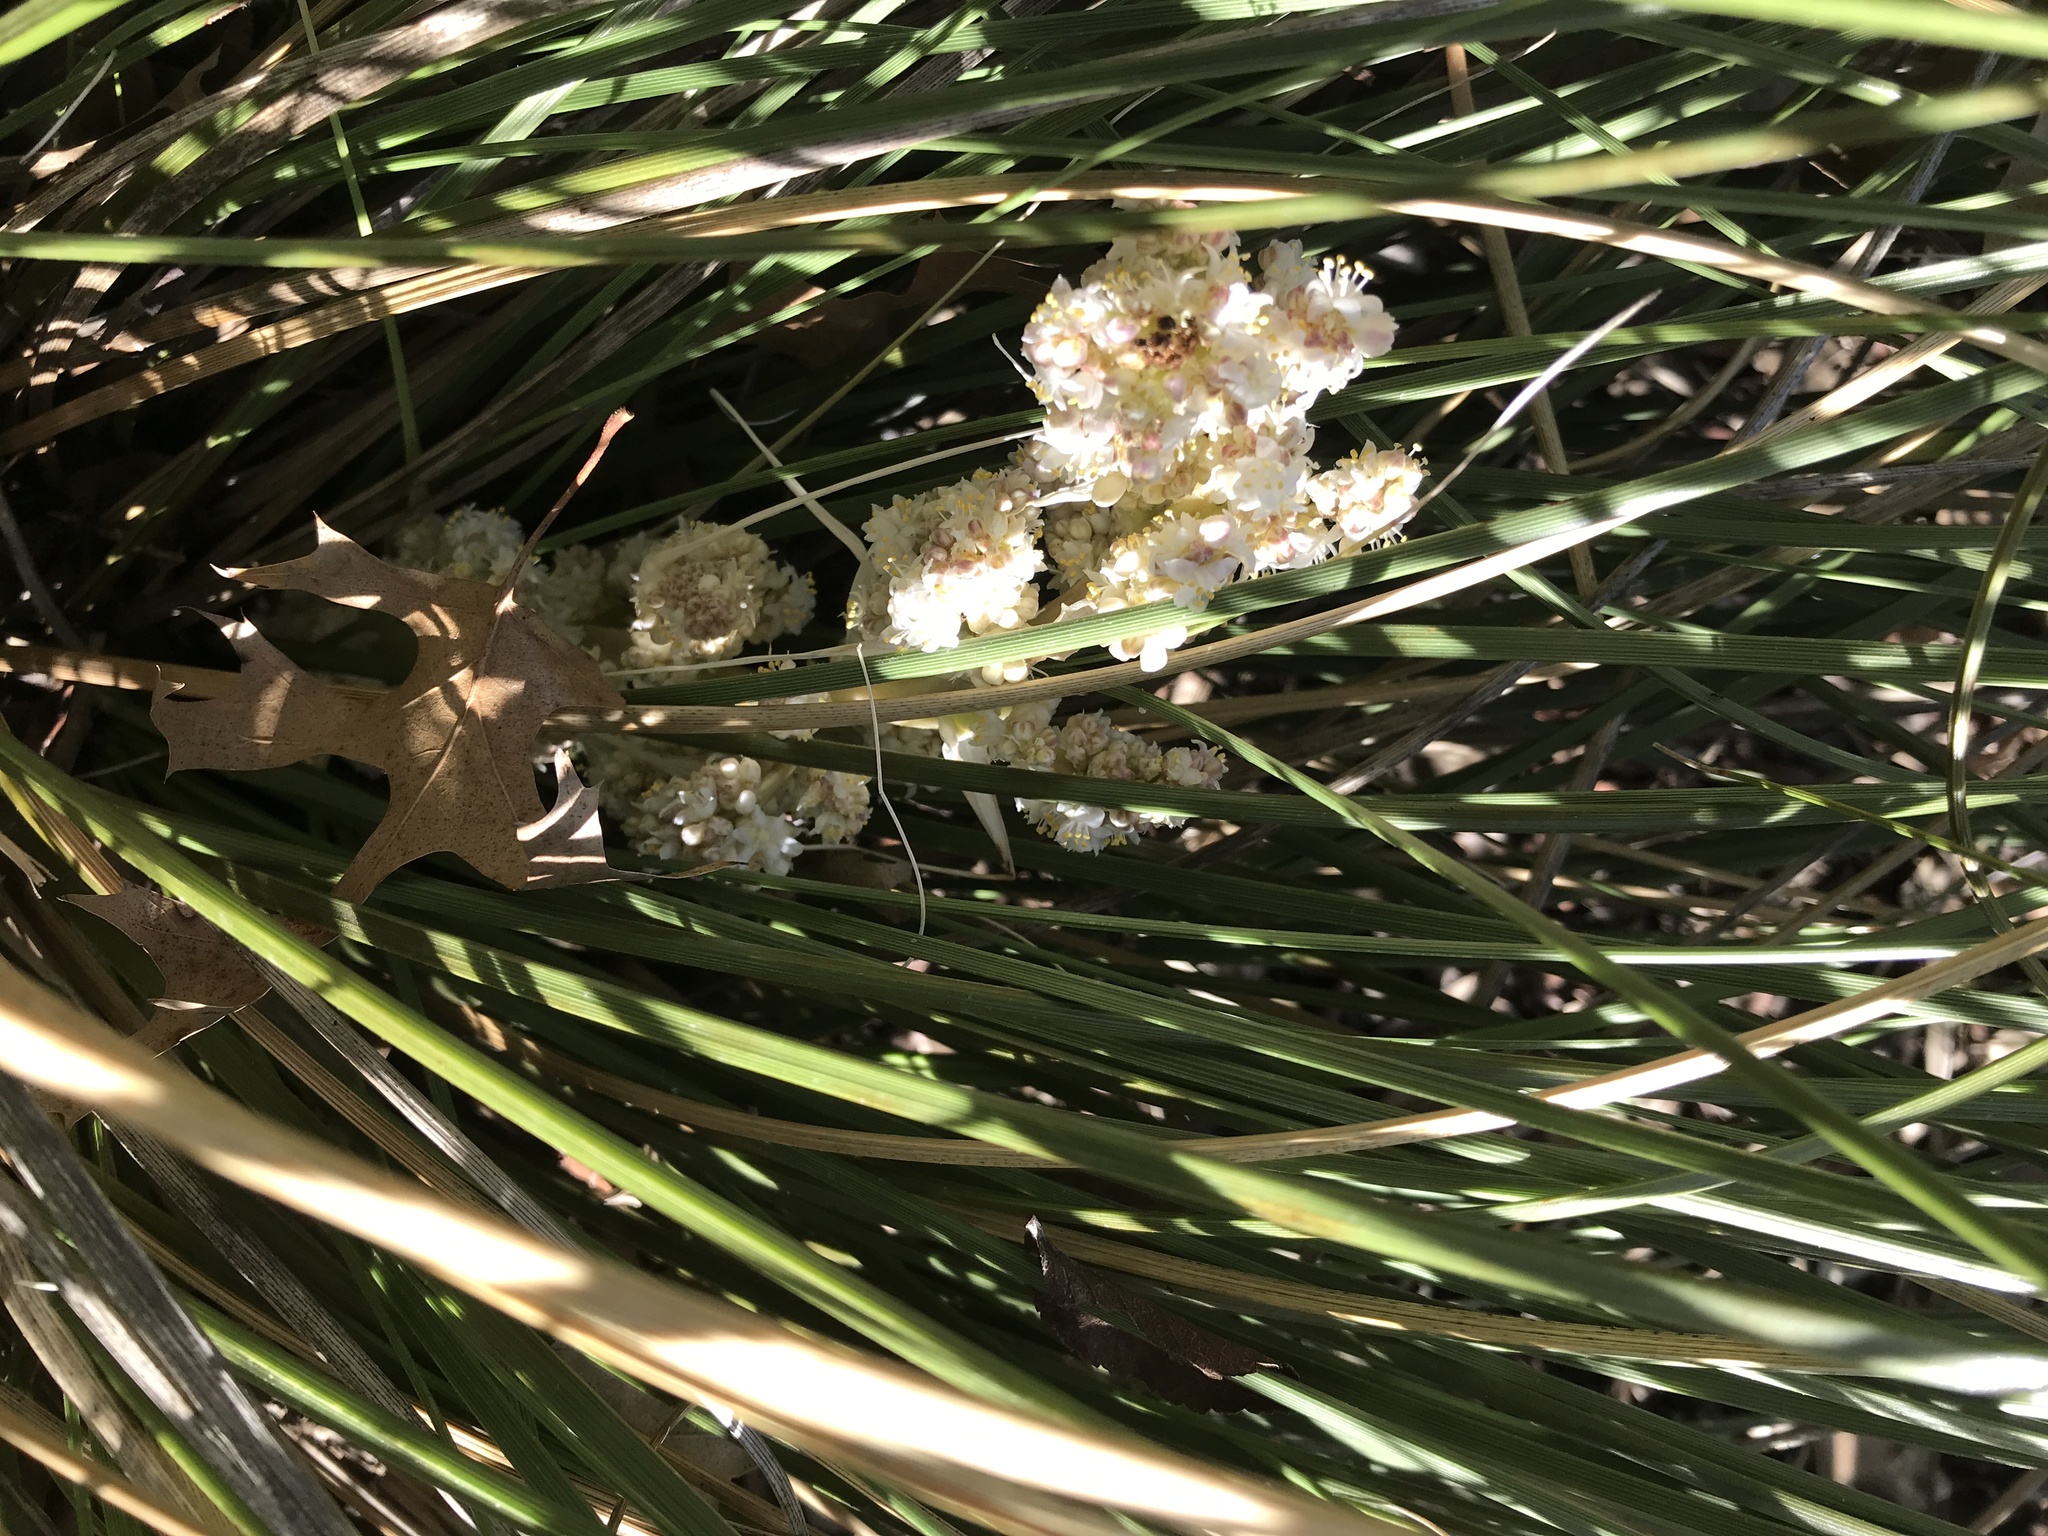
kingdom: Plantae
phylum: Tracheophyta
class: Liliopsida
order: Asparagales
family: Asparagaceae
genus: Nolina
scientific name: Nolina texana
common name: Texas sacahuiste
